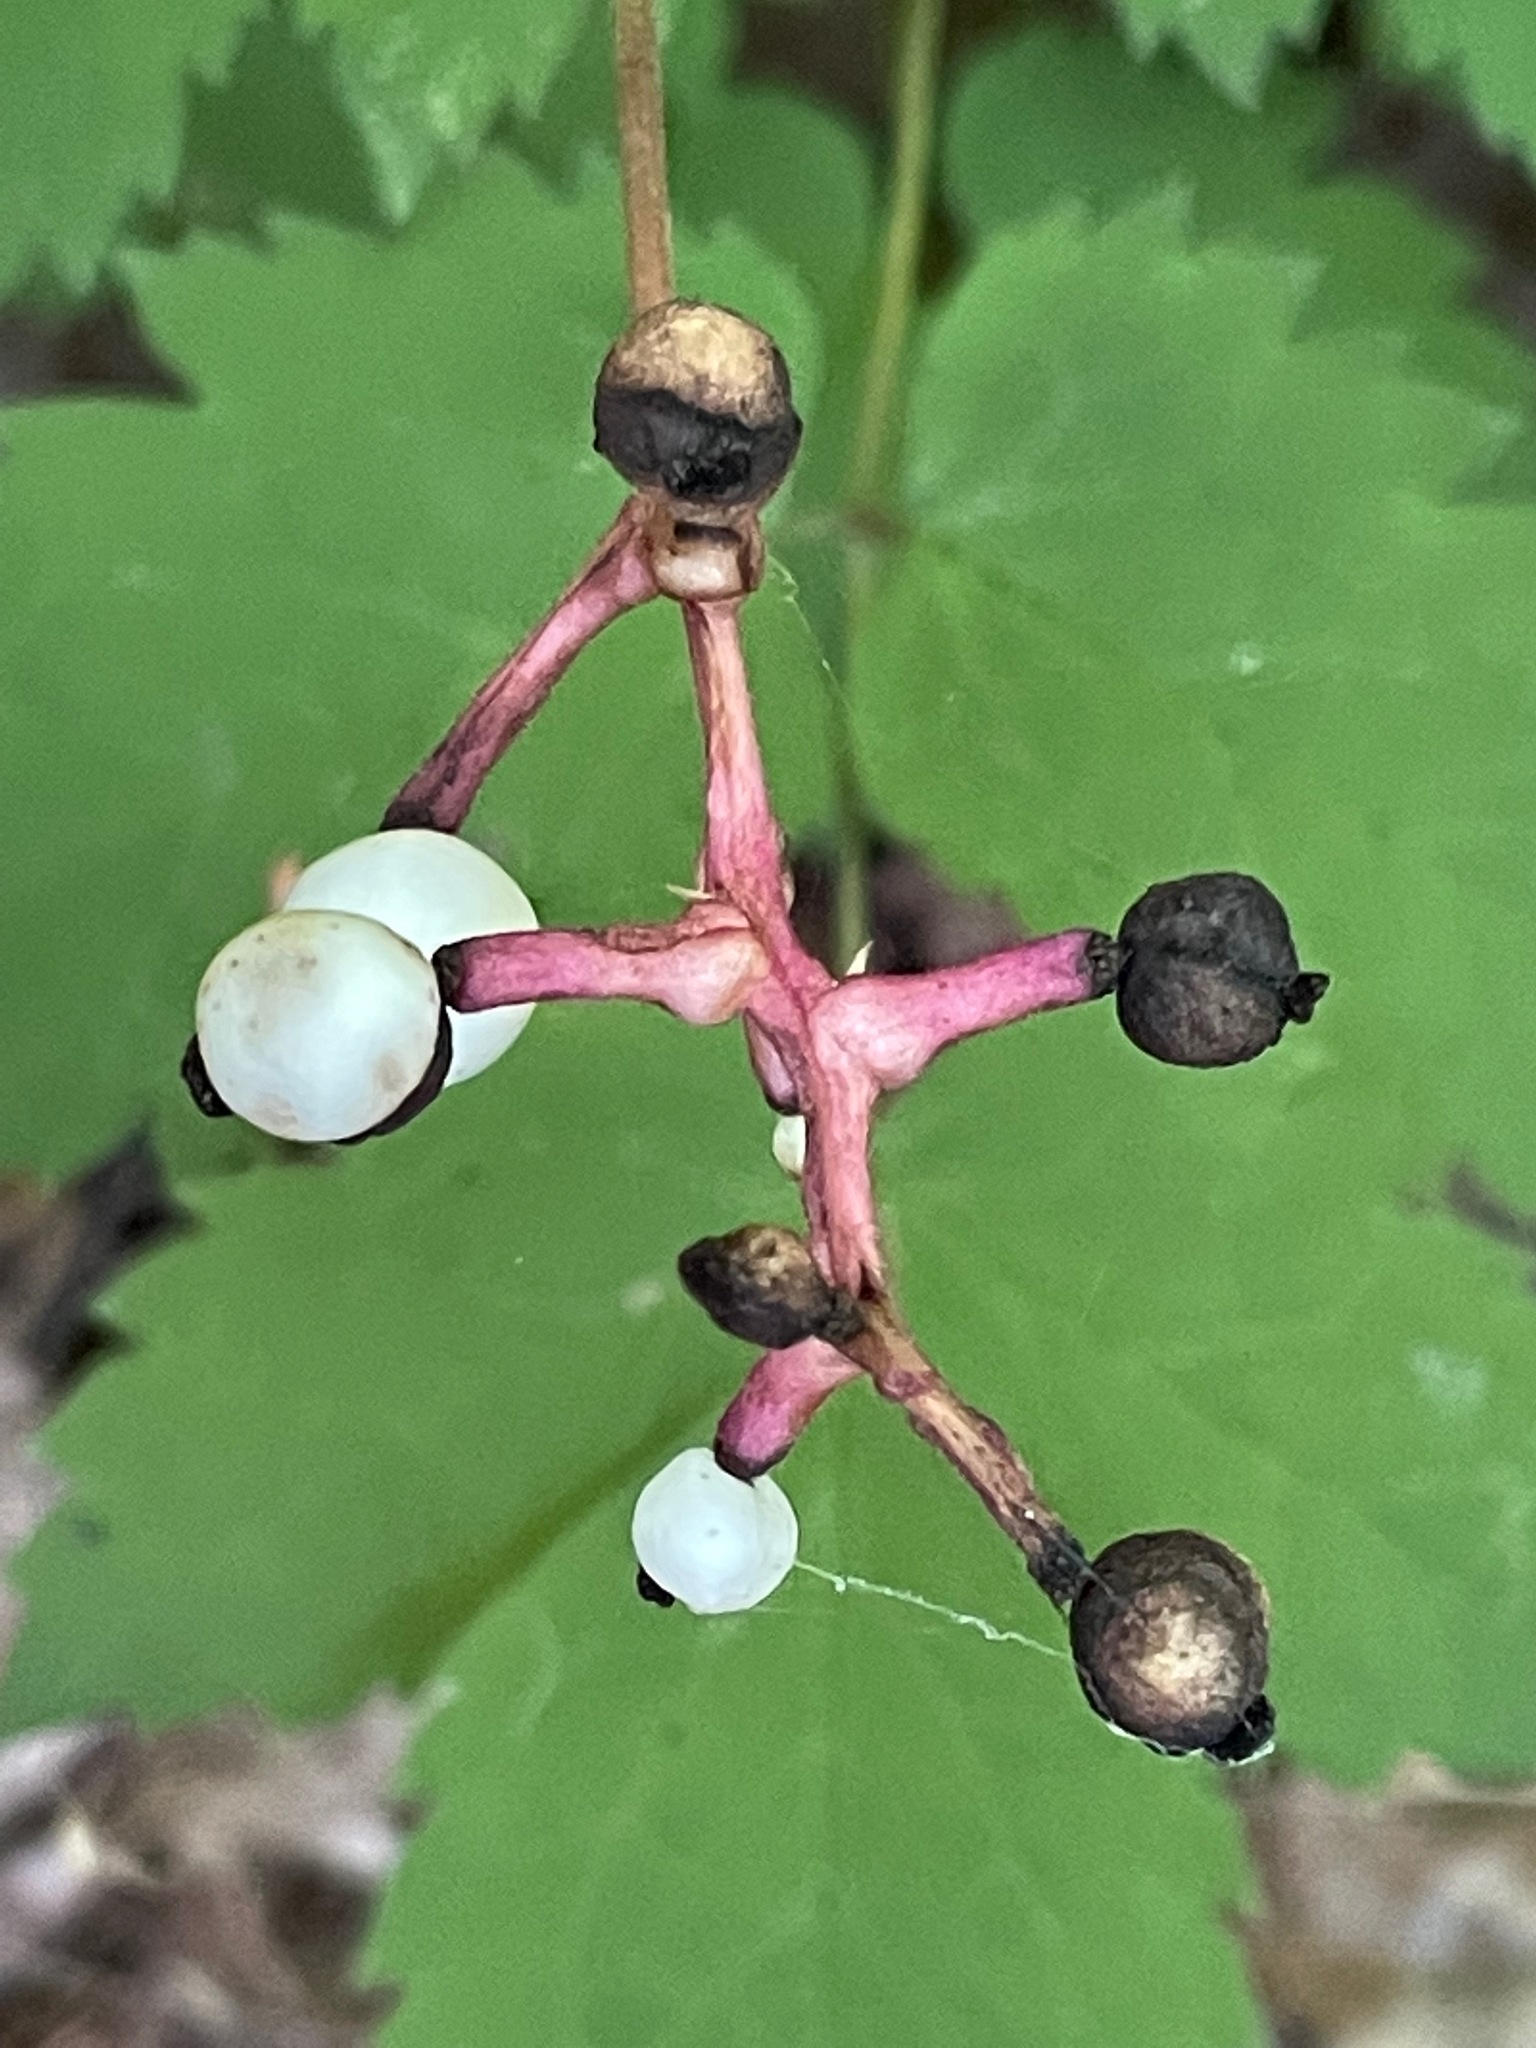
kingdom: Plantae
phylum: Tracheophyta
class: Magnoliopsida
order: Ranunculales
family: Ranunculaceae
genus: Actaea
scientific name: Actaea pachypoda
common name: Doll's-eyes
